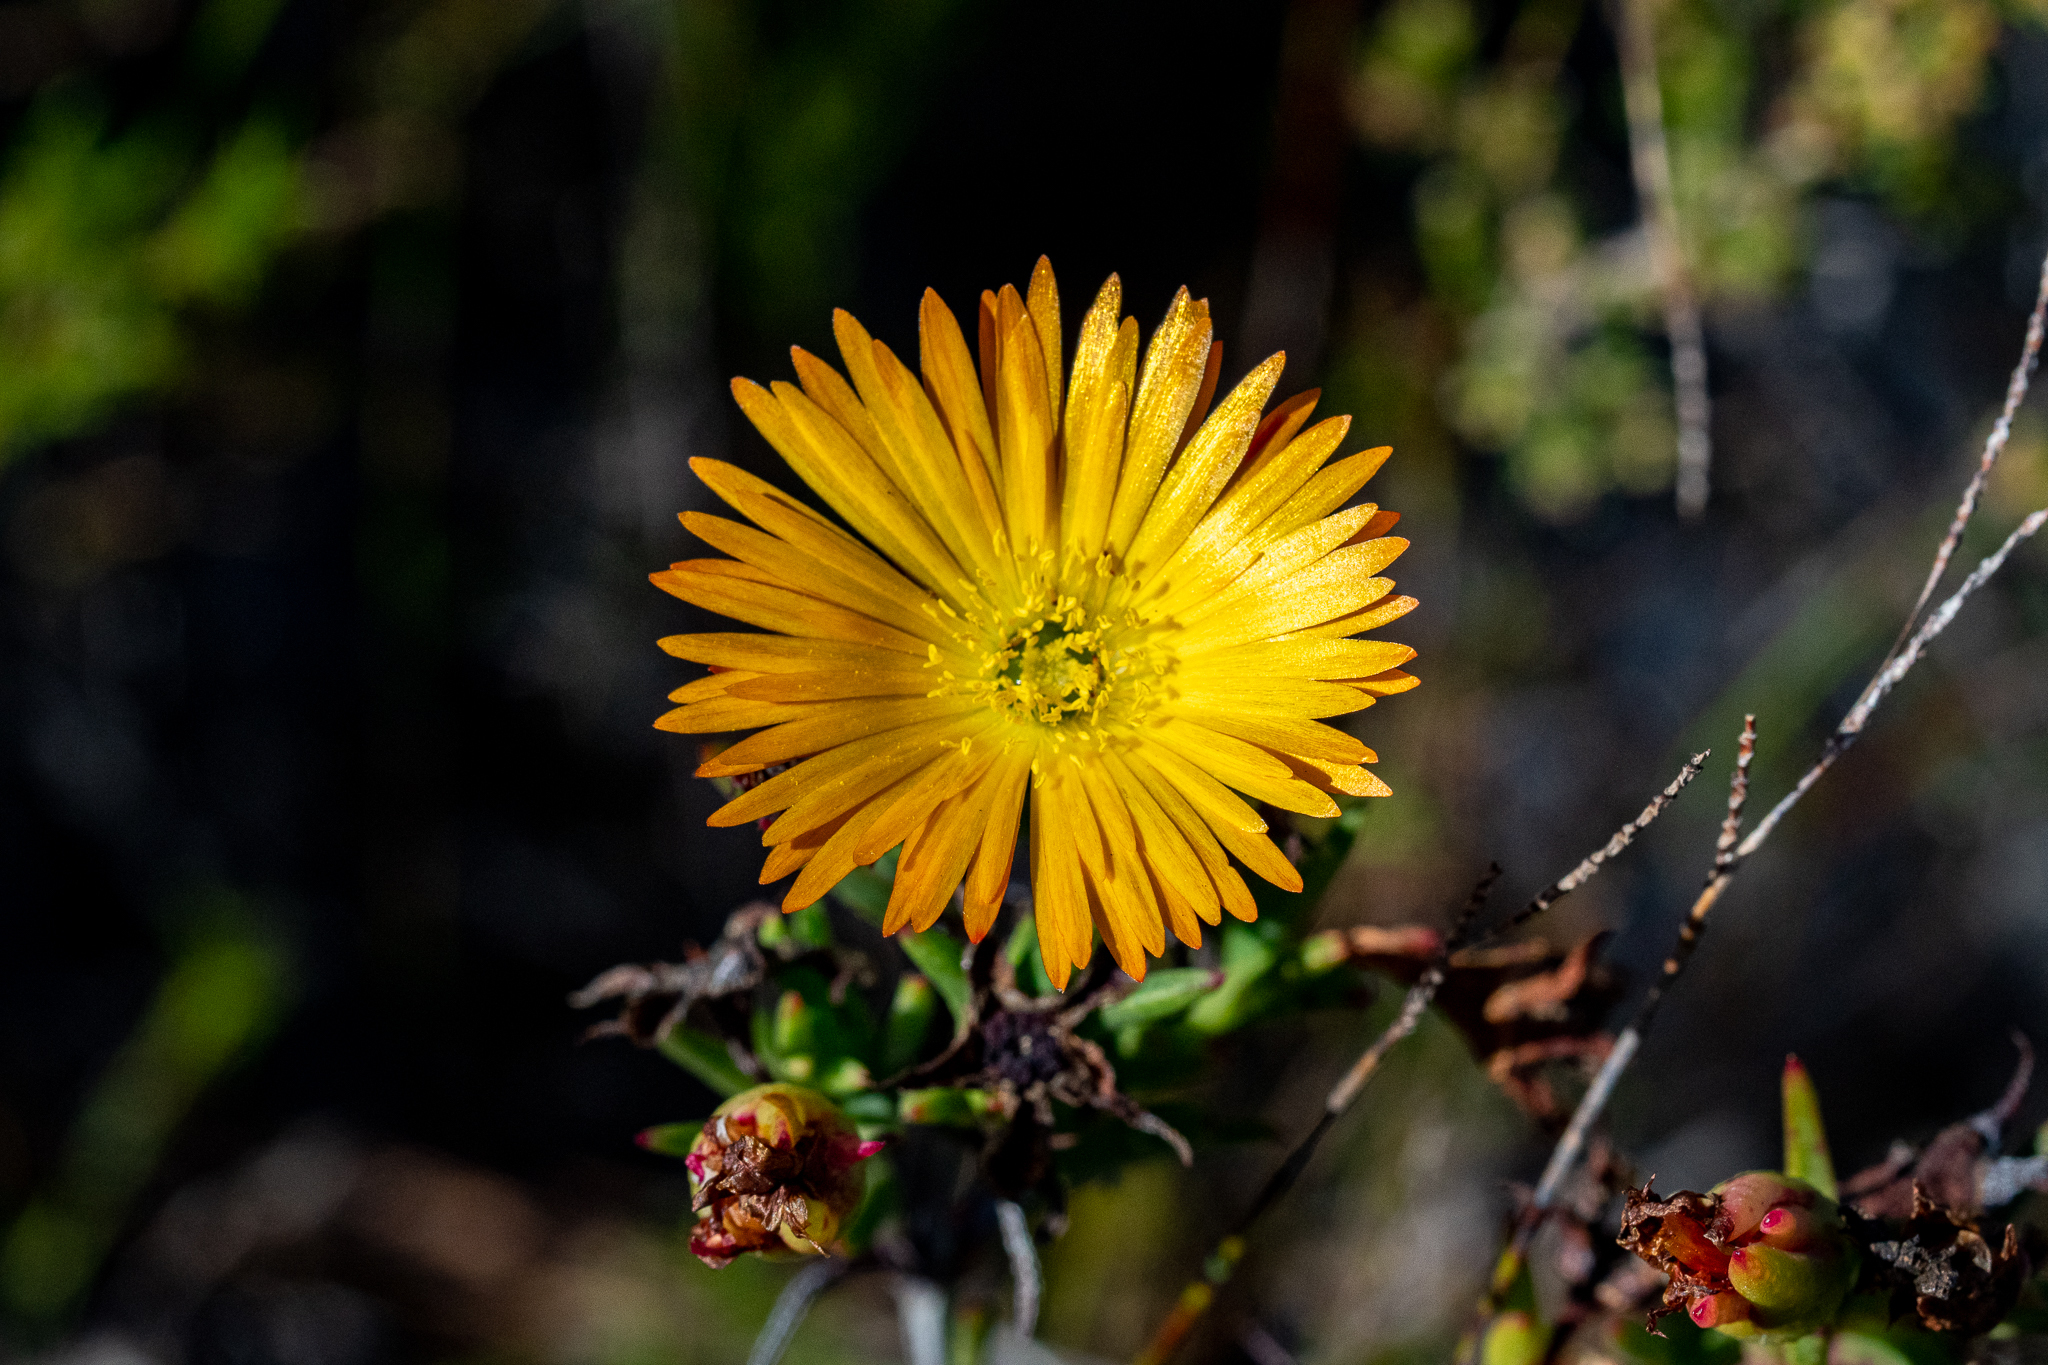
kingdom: Plantae
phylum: Tracheophyta
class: Magnoliopsida
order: Caryophyllales
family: Aizoaceae
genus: Lampranthus
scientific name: Lampranthus bicolor
